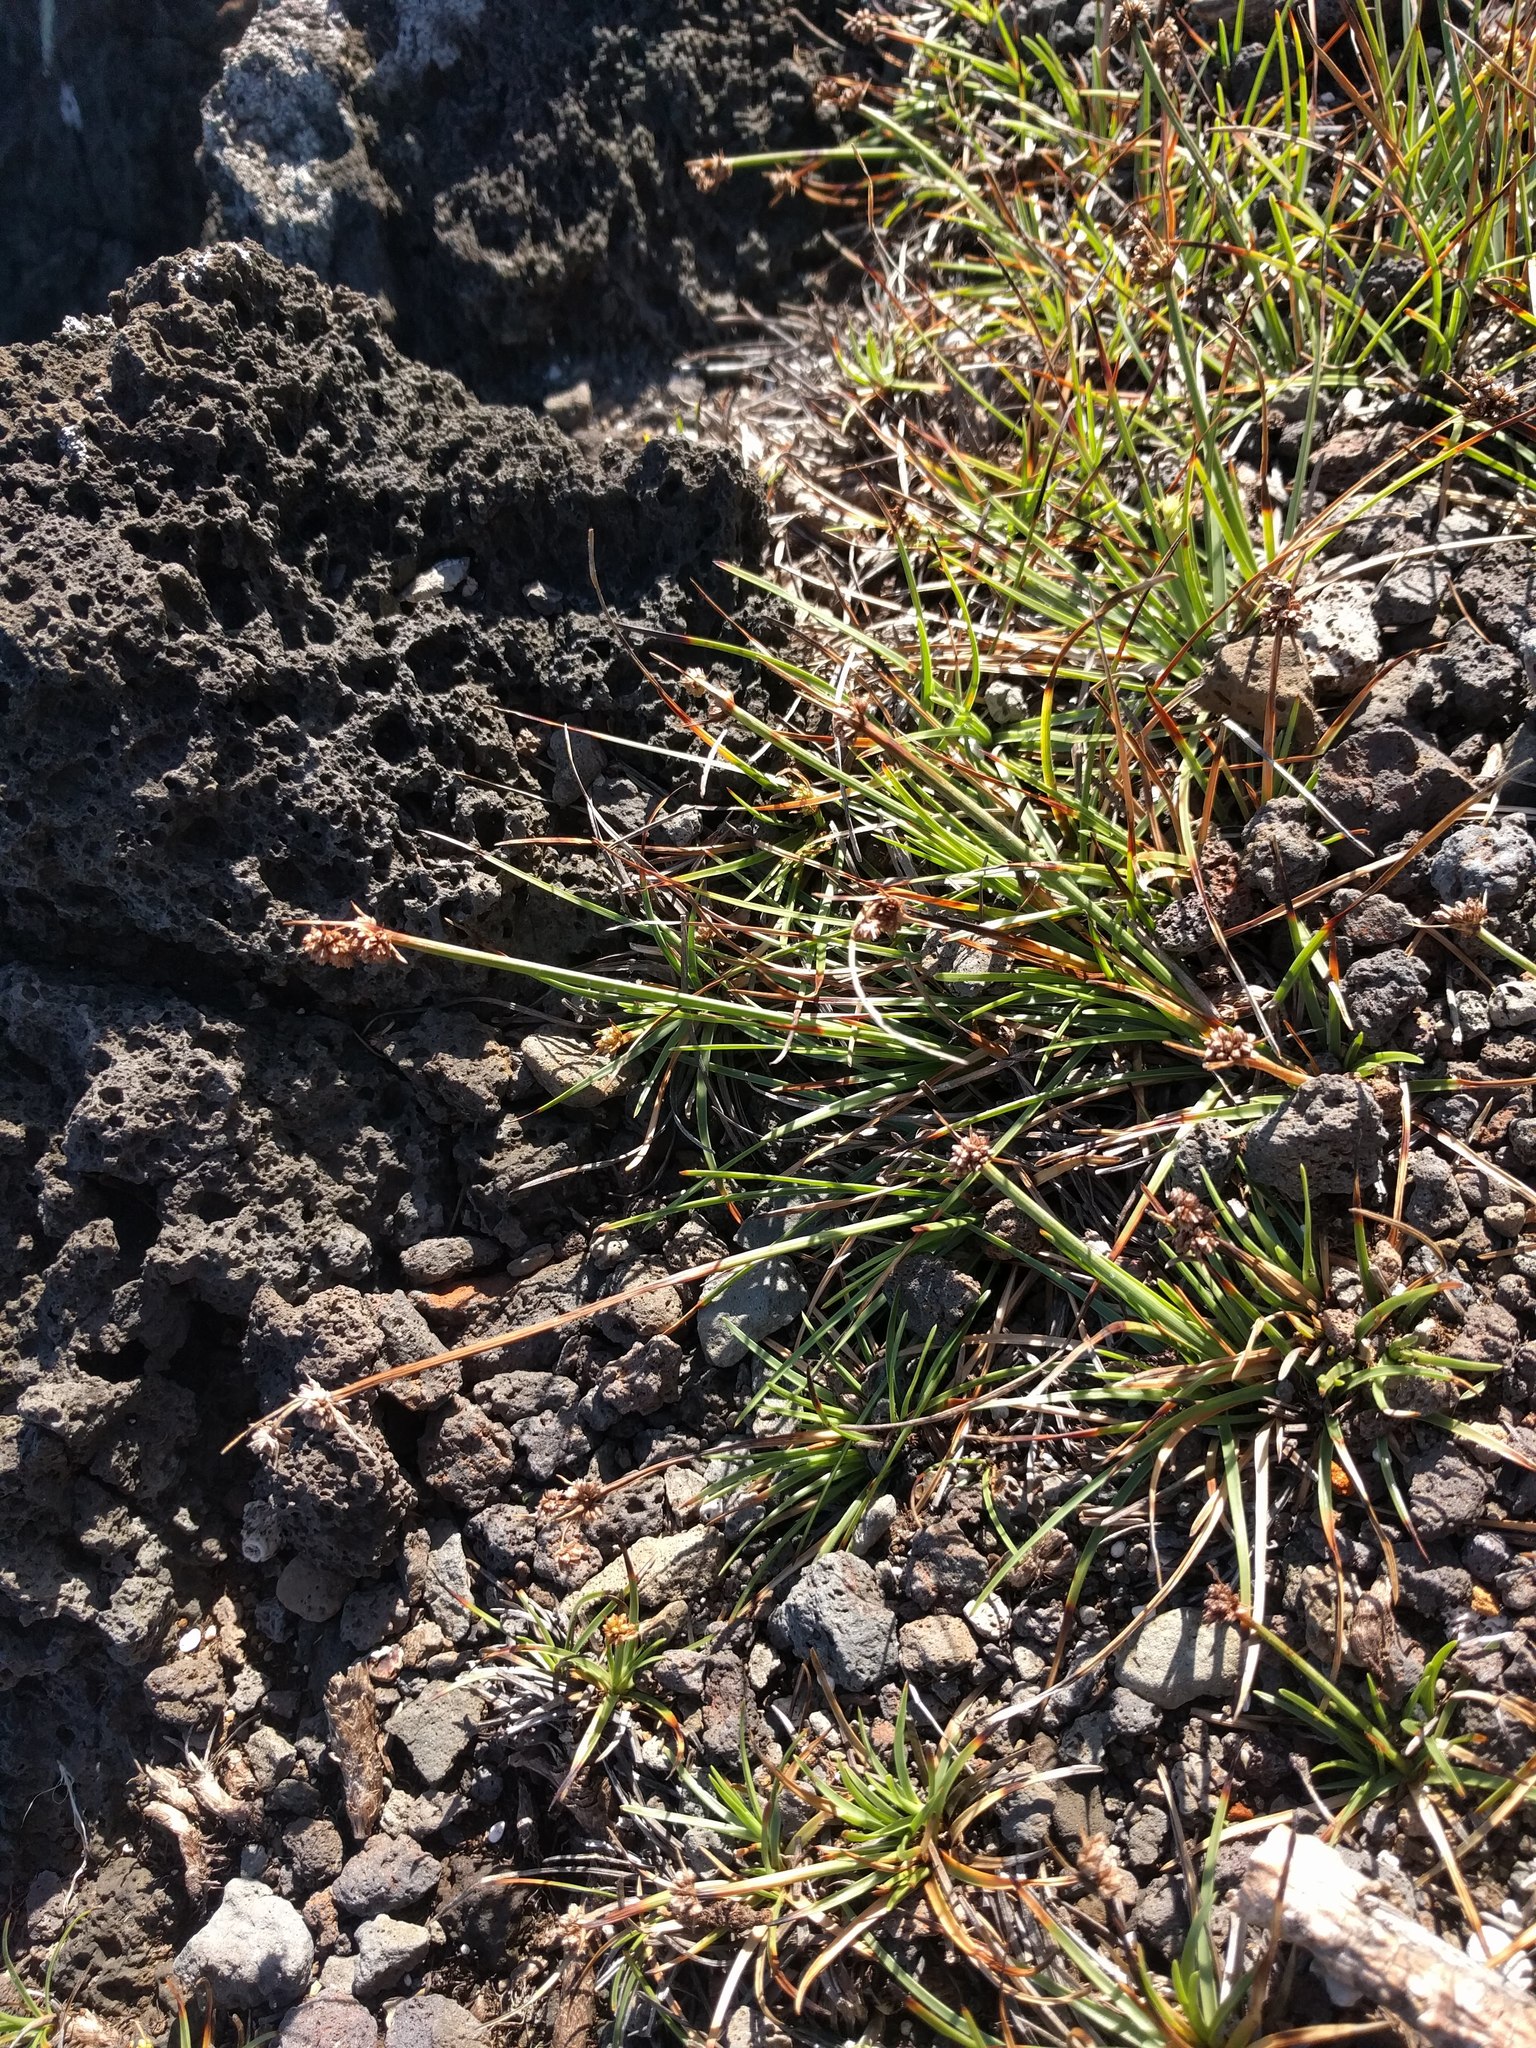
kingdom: Plantae
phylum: Tracheophyta
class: Liliopsida
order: Poales
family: Cyperaceae
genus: Fimbristylis
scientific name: Fimbristylis cymosa
